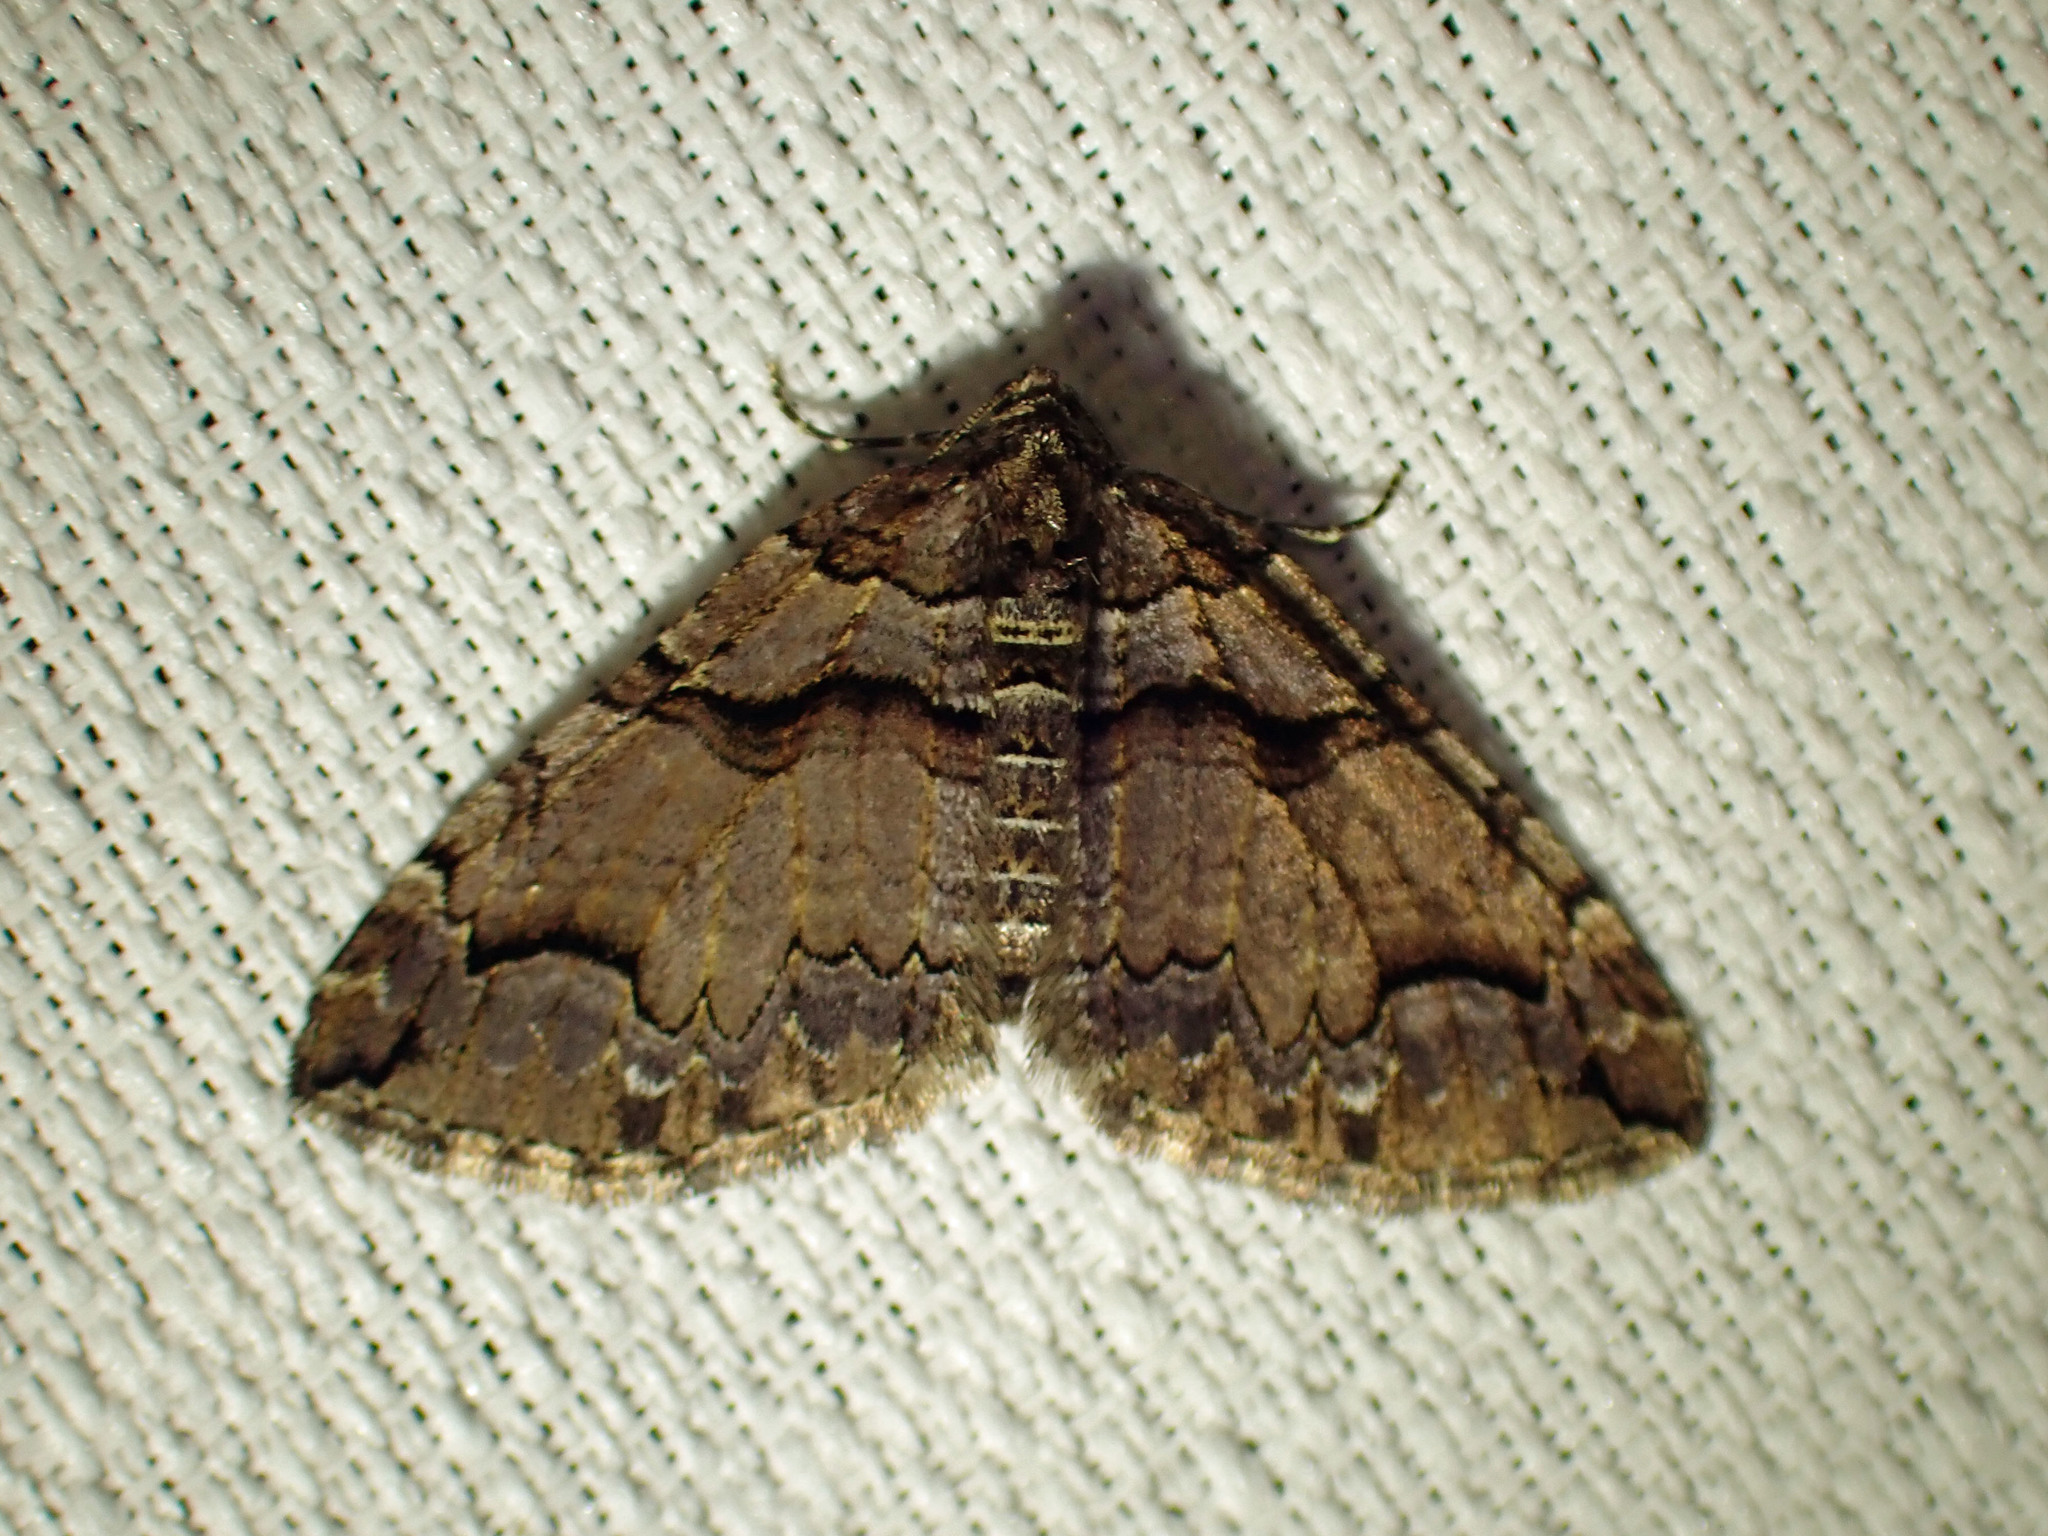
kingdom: Animalia
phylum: Arthropoda
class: Insecta
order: Lepidoptera
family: Geometridae
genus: Anticlea
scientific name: Anticlea vasiliata
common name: Variable carpet
